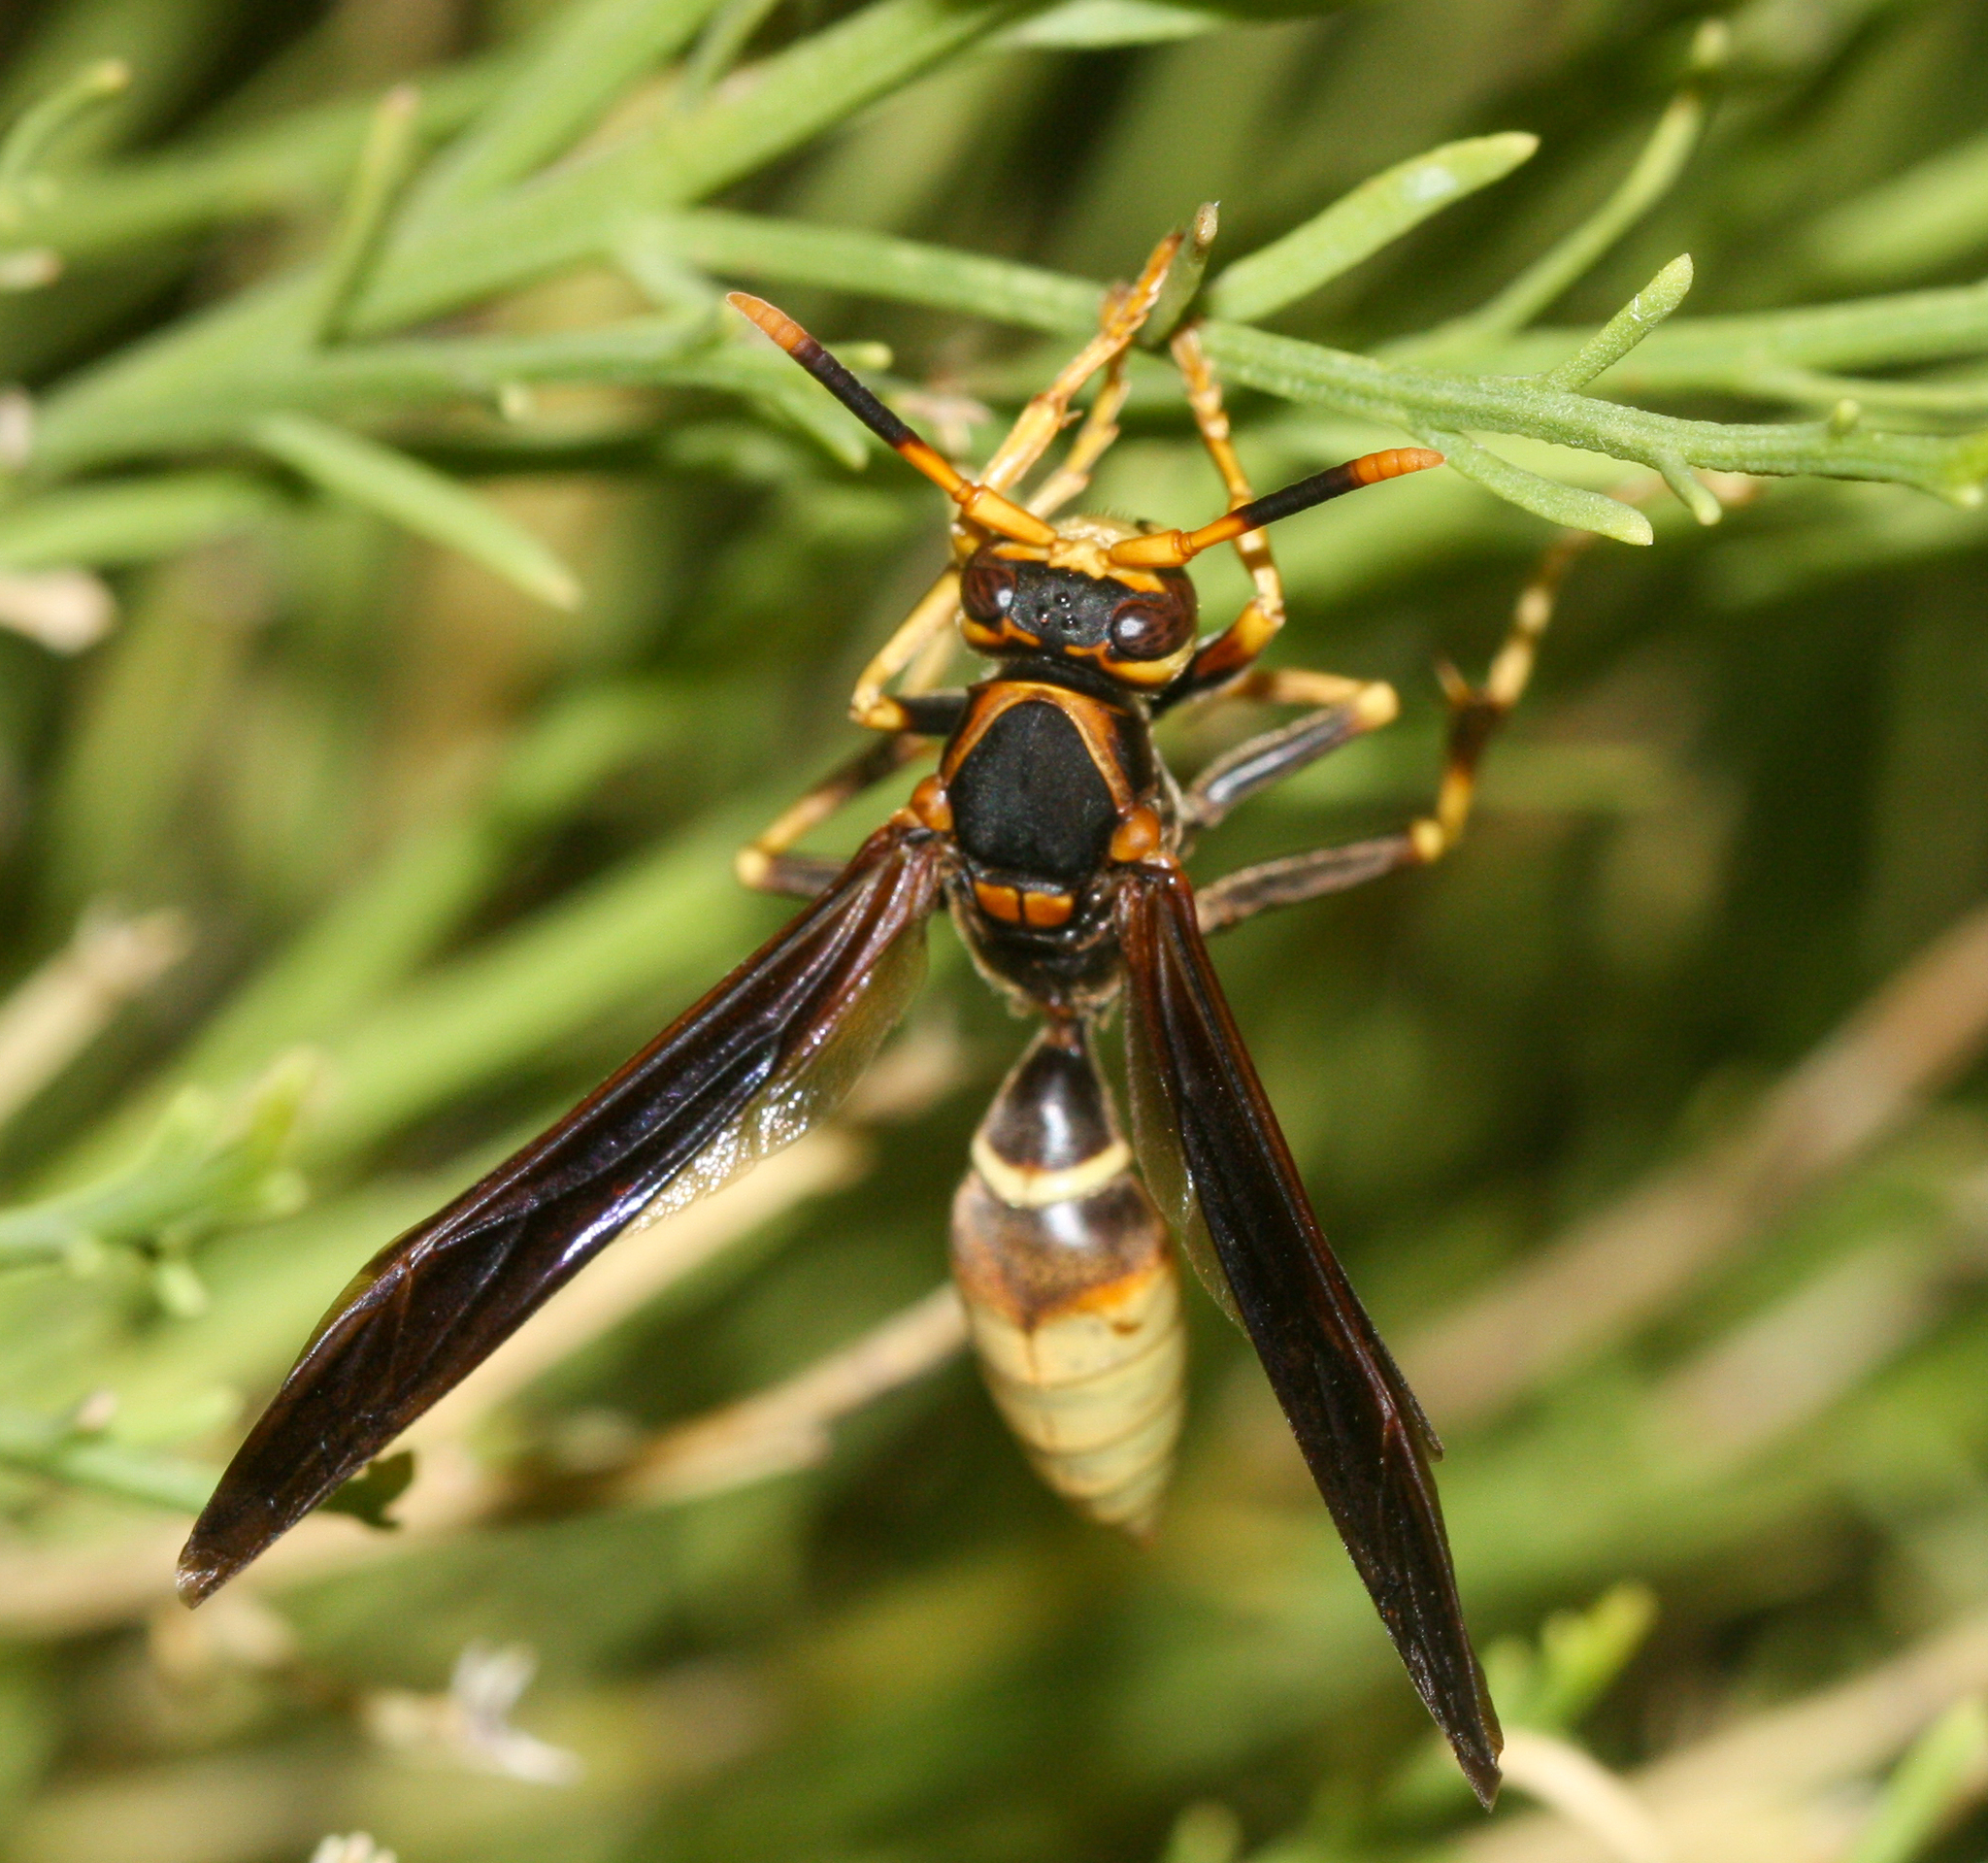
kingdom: Animalia
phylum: Arthropoda
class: Insecta
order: Hymenoptera
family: Eumenidae
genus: Polistes
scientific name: Polistes comanchus
